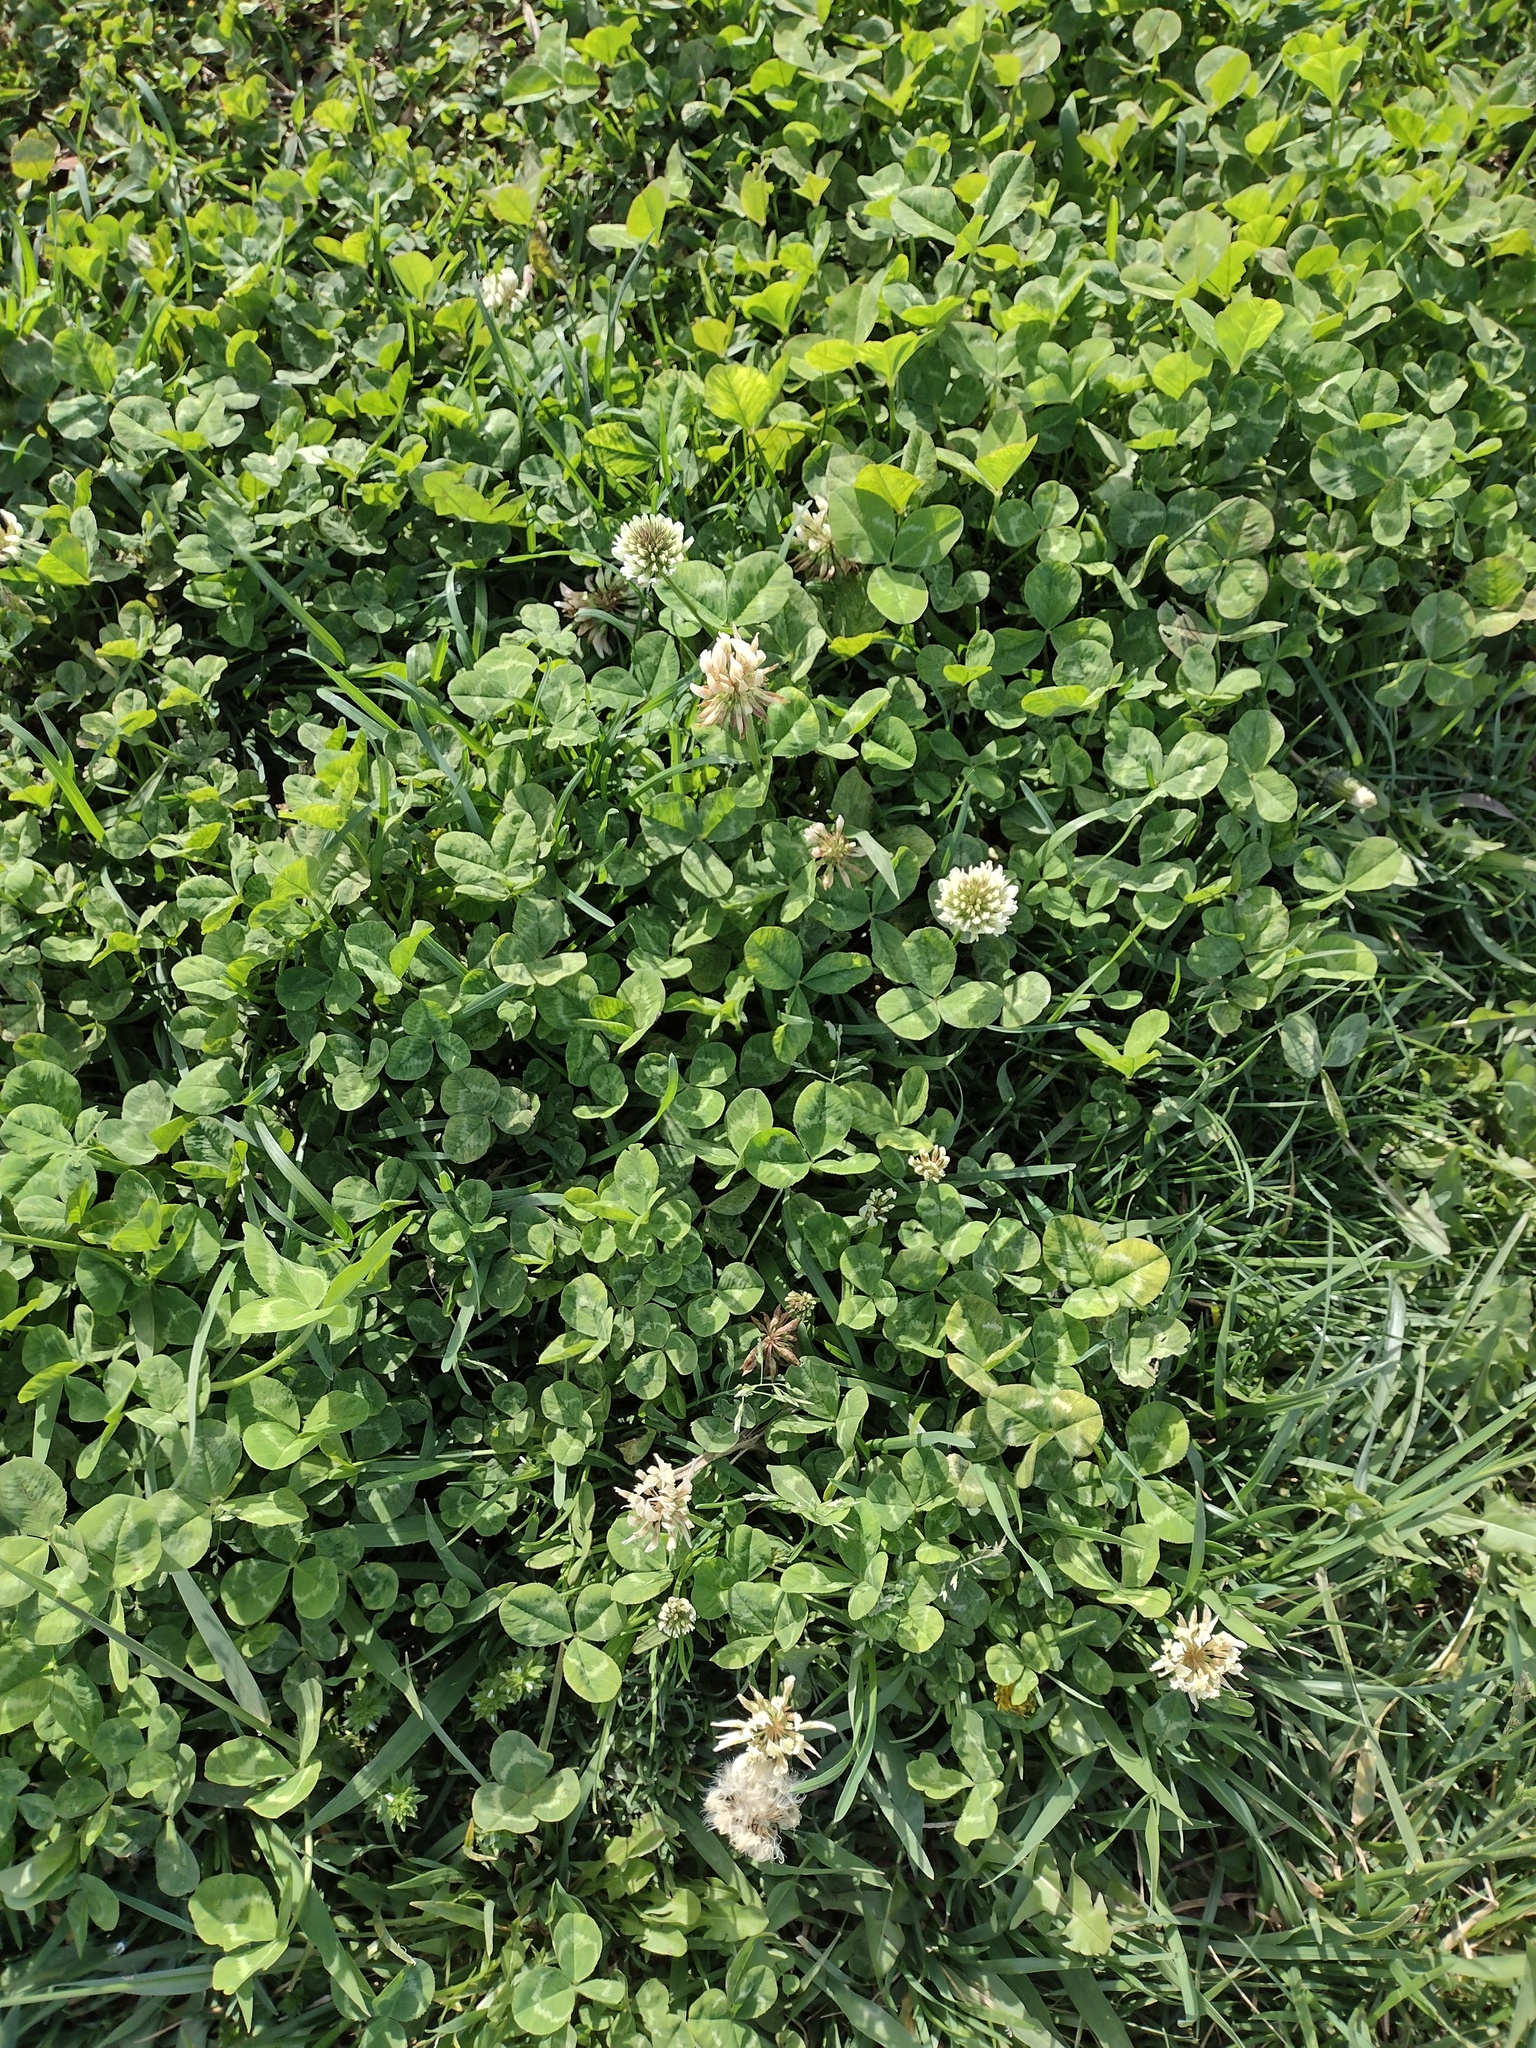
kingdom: Plantae
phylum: Tracheophyta
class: Magnoliopsida
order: Fabales
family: Fabaceae
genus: Trifolium
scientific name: Trifolium repens
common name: White clover
